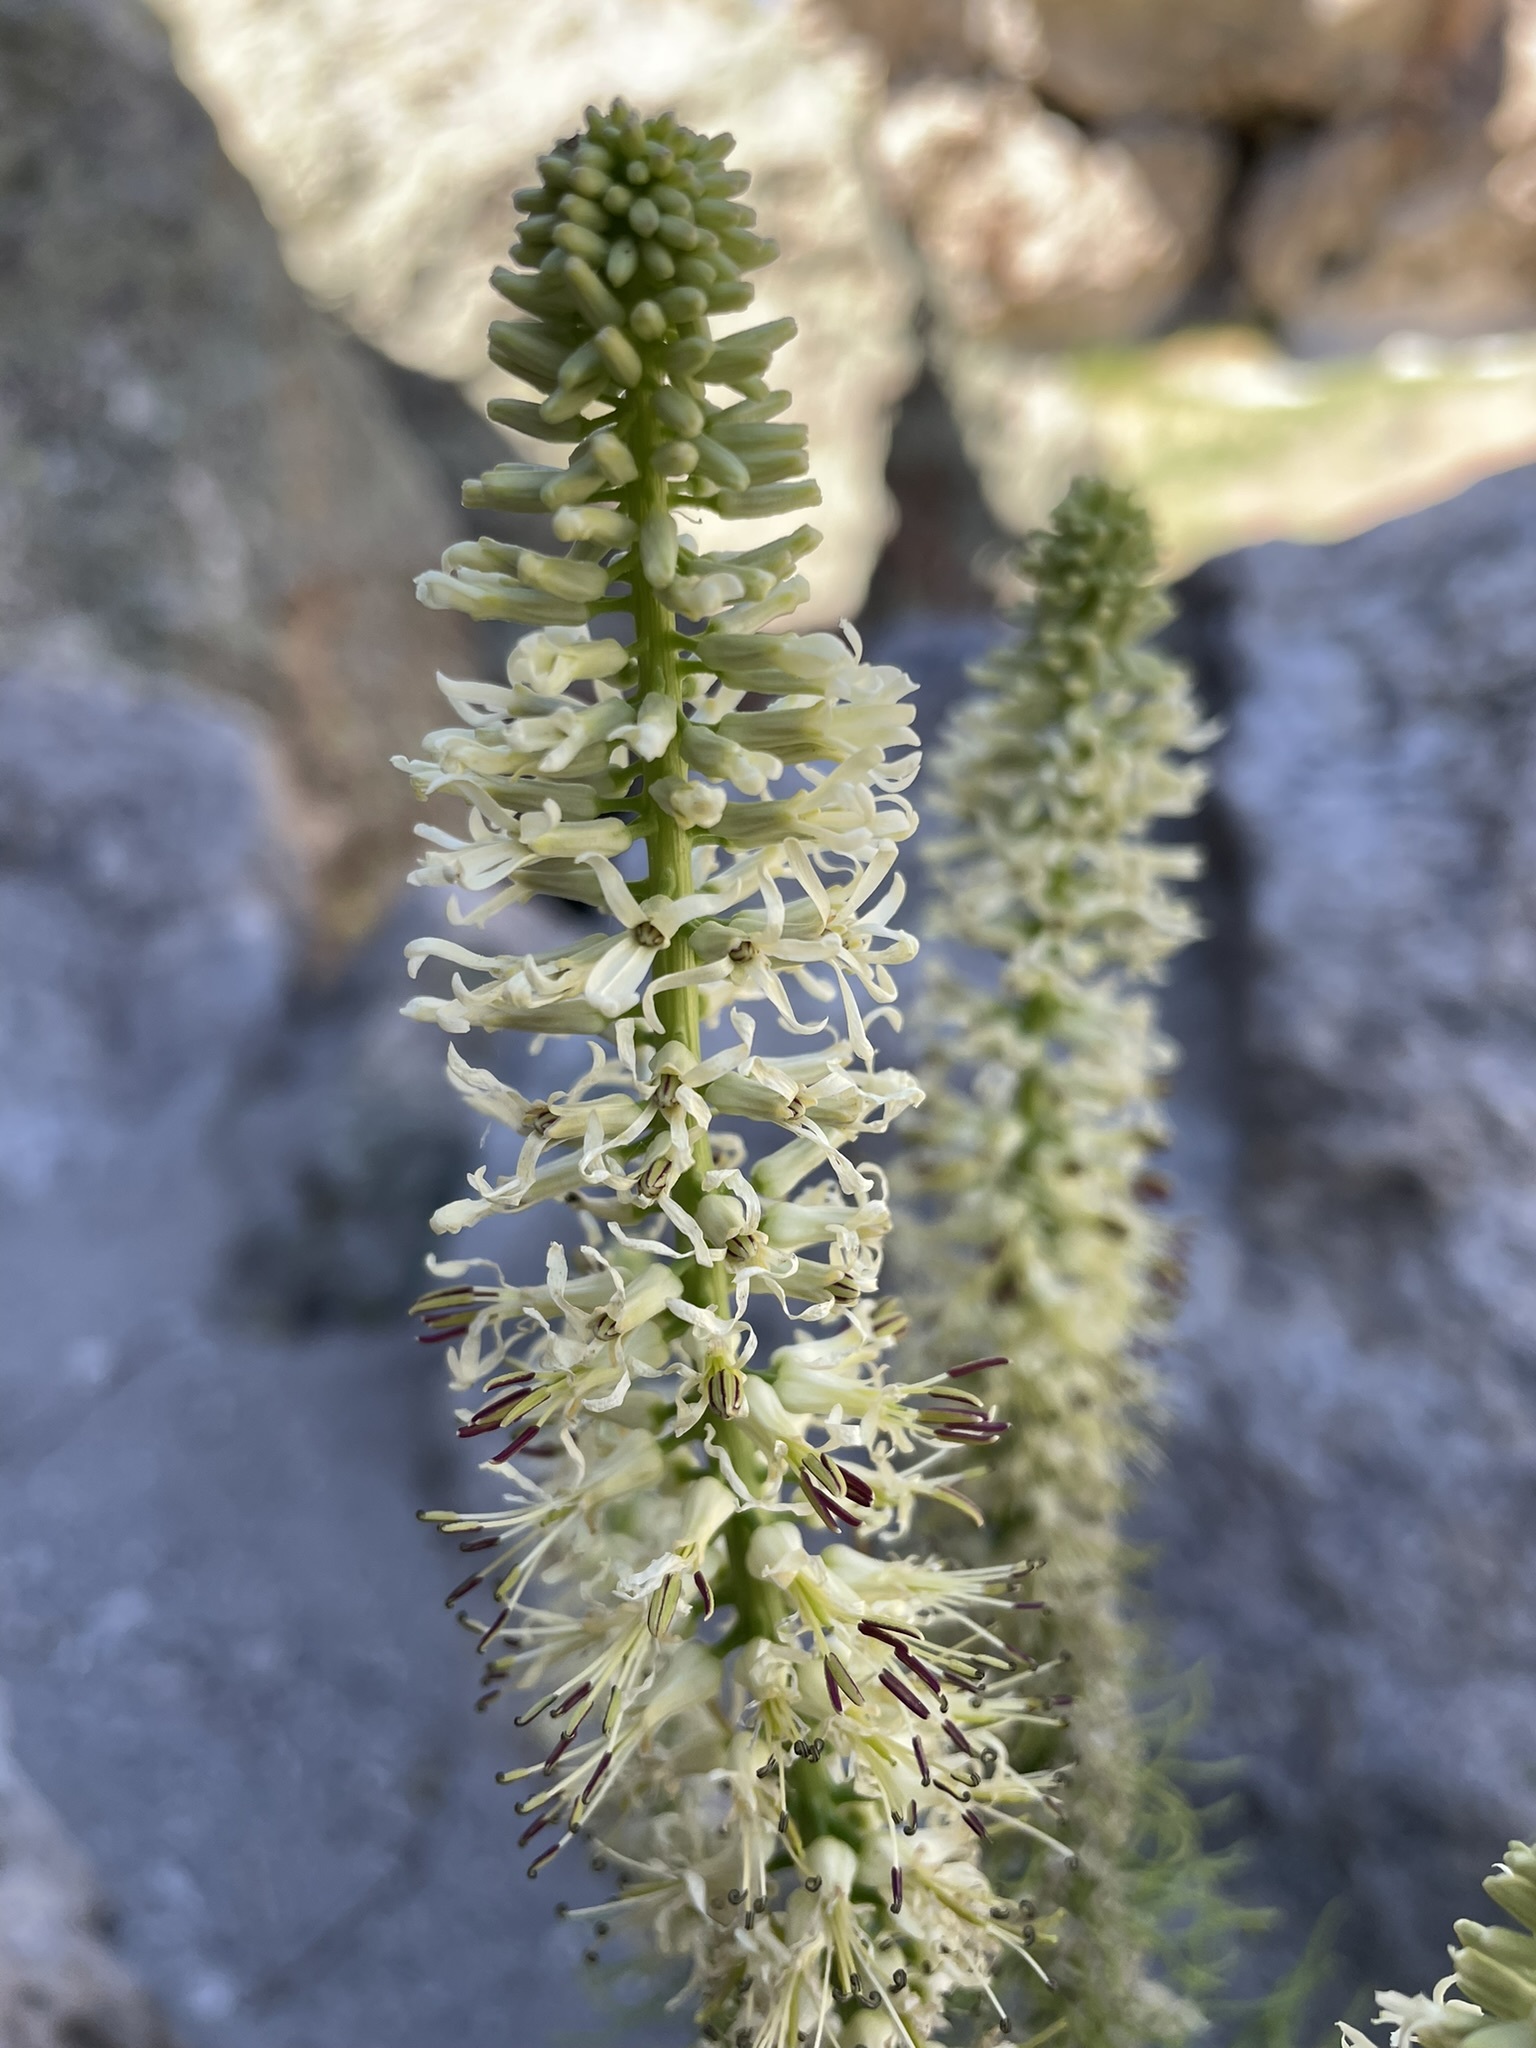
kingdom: Plantae
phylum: Tracheophyta
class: Magnoliopsida
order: Brassicales
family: Brassicaceae
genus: Thelypodium
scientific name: Thelypodium laciniatum
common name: Cut-leaved thelypody
